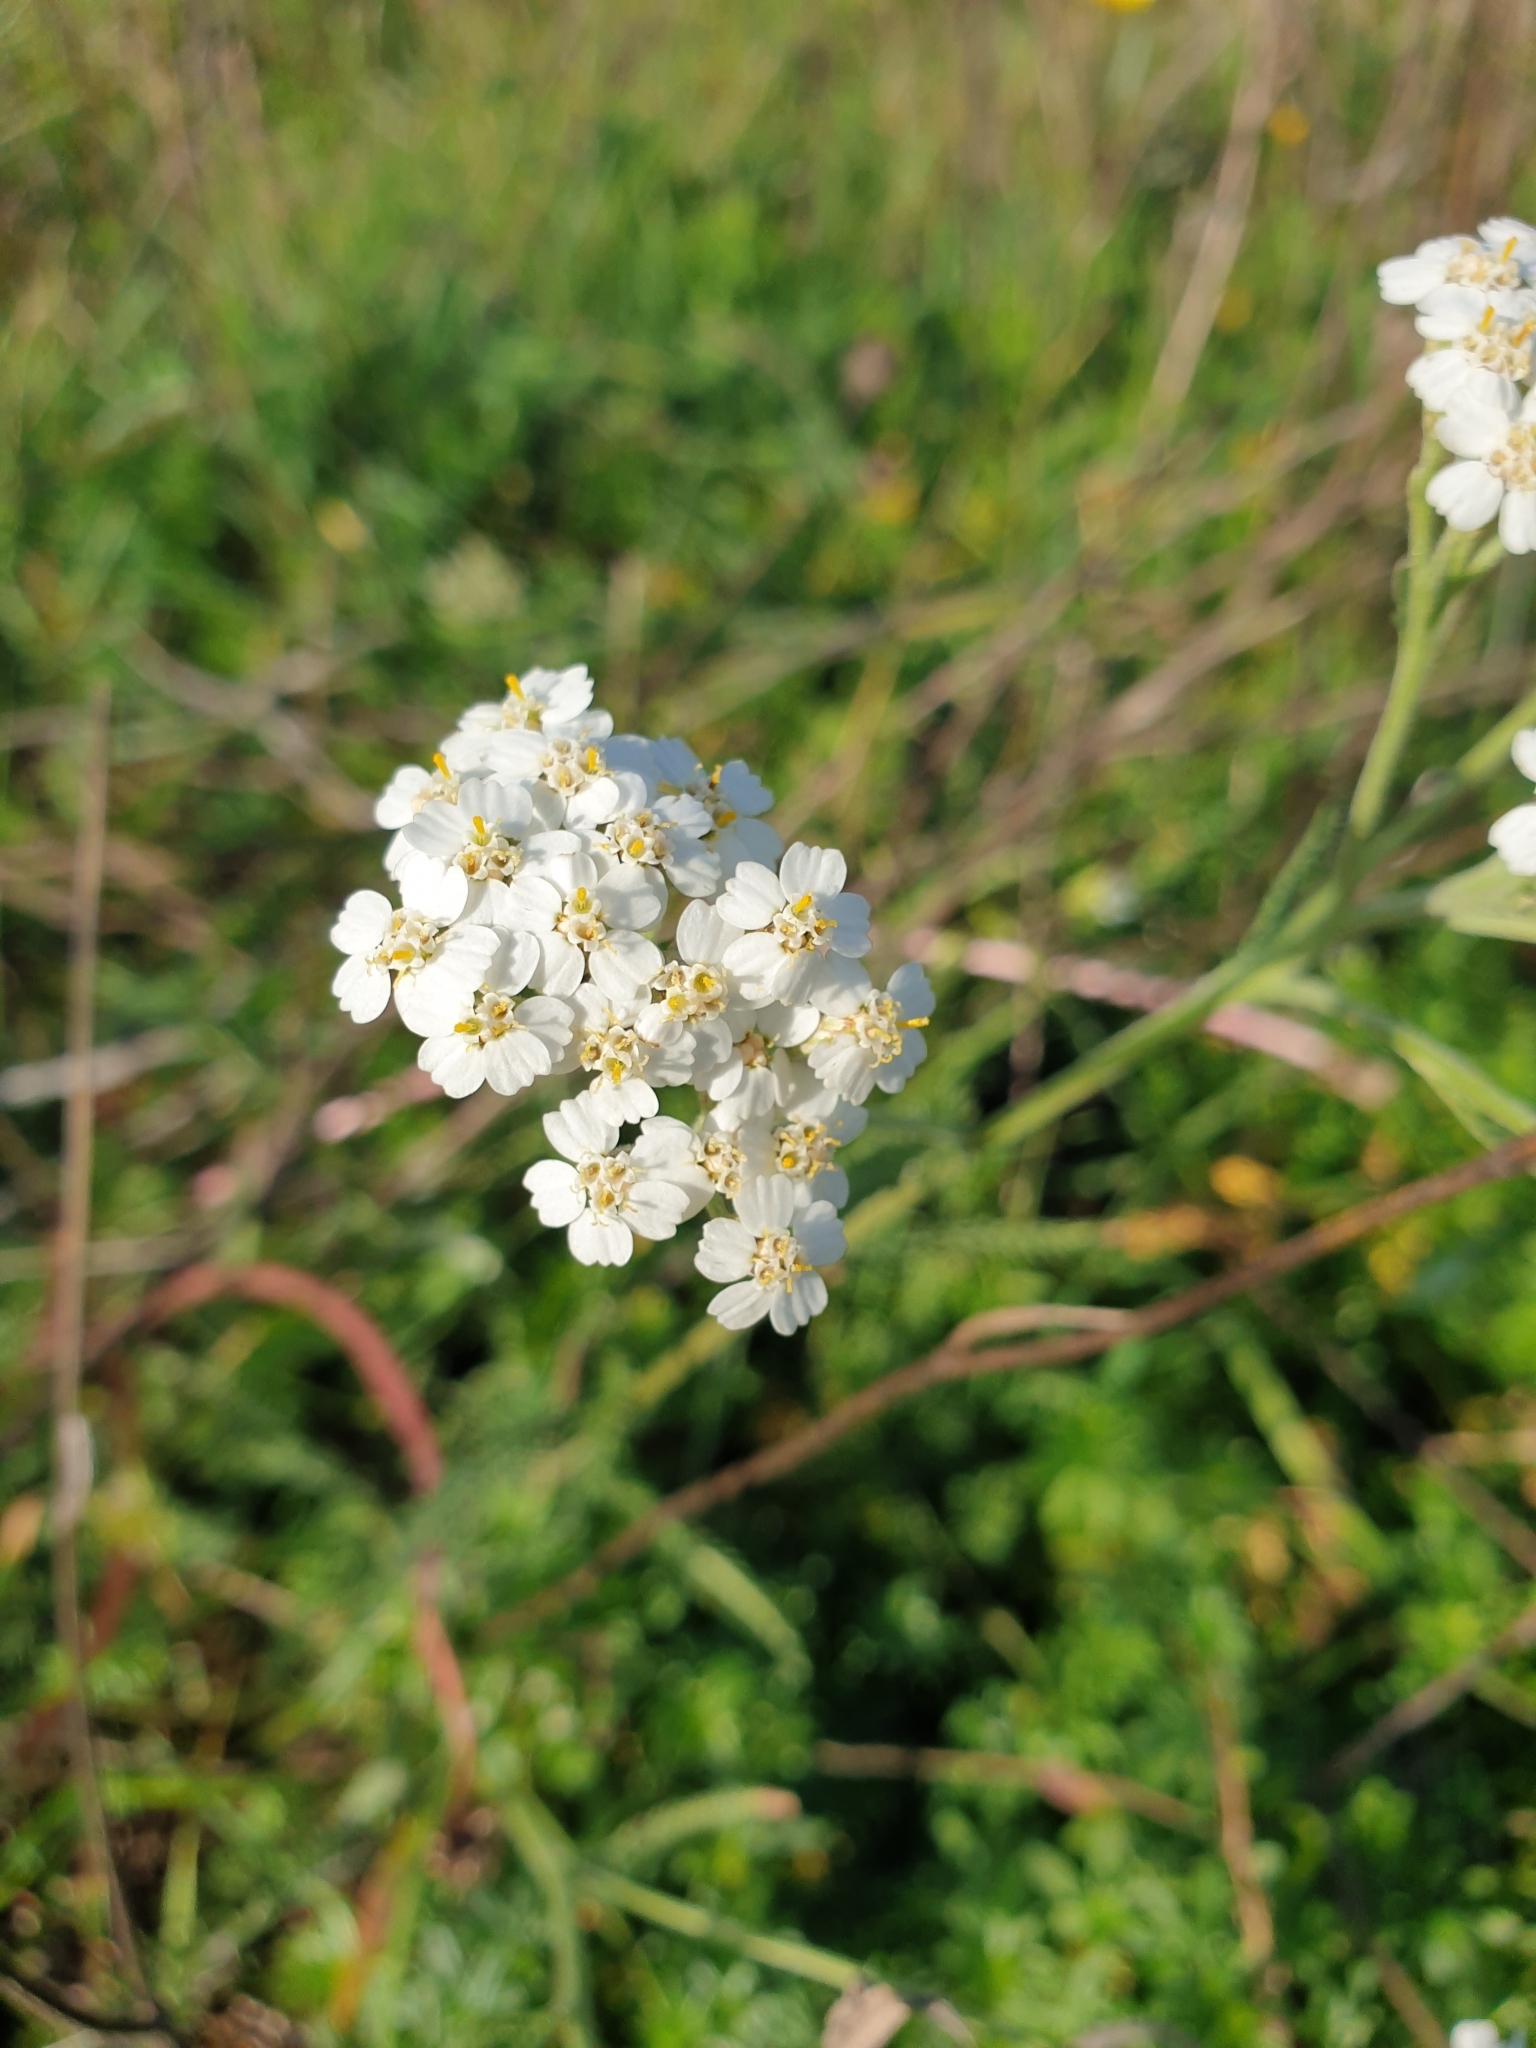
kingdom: Plantae
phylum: Tracheophyta
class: Magnoliopsida
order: Asterales
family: Asteraceae
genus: Achillea
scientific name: Achillea millefolium
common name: Yarrow
